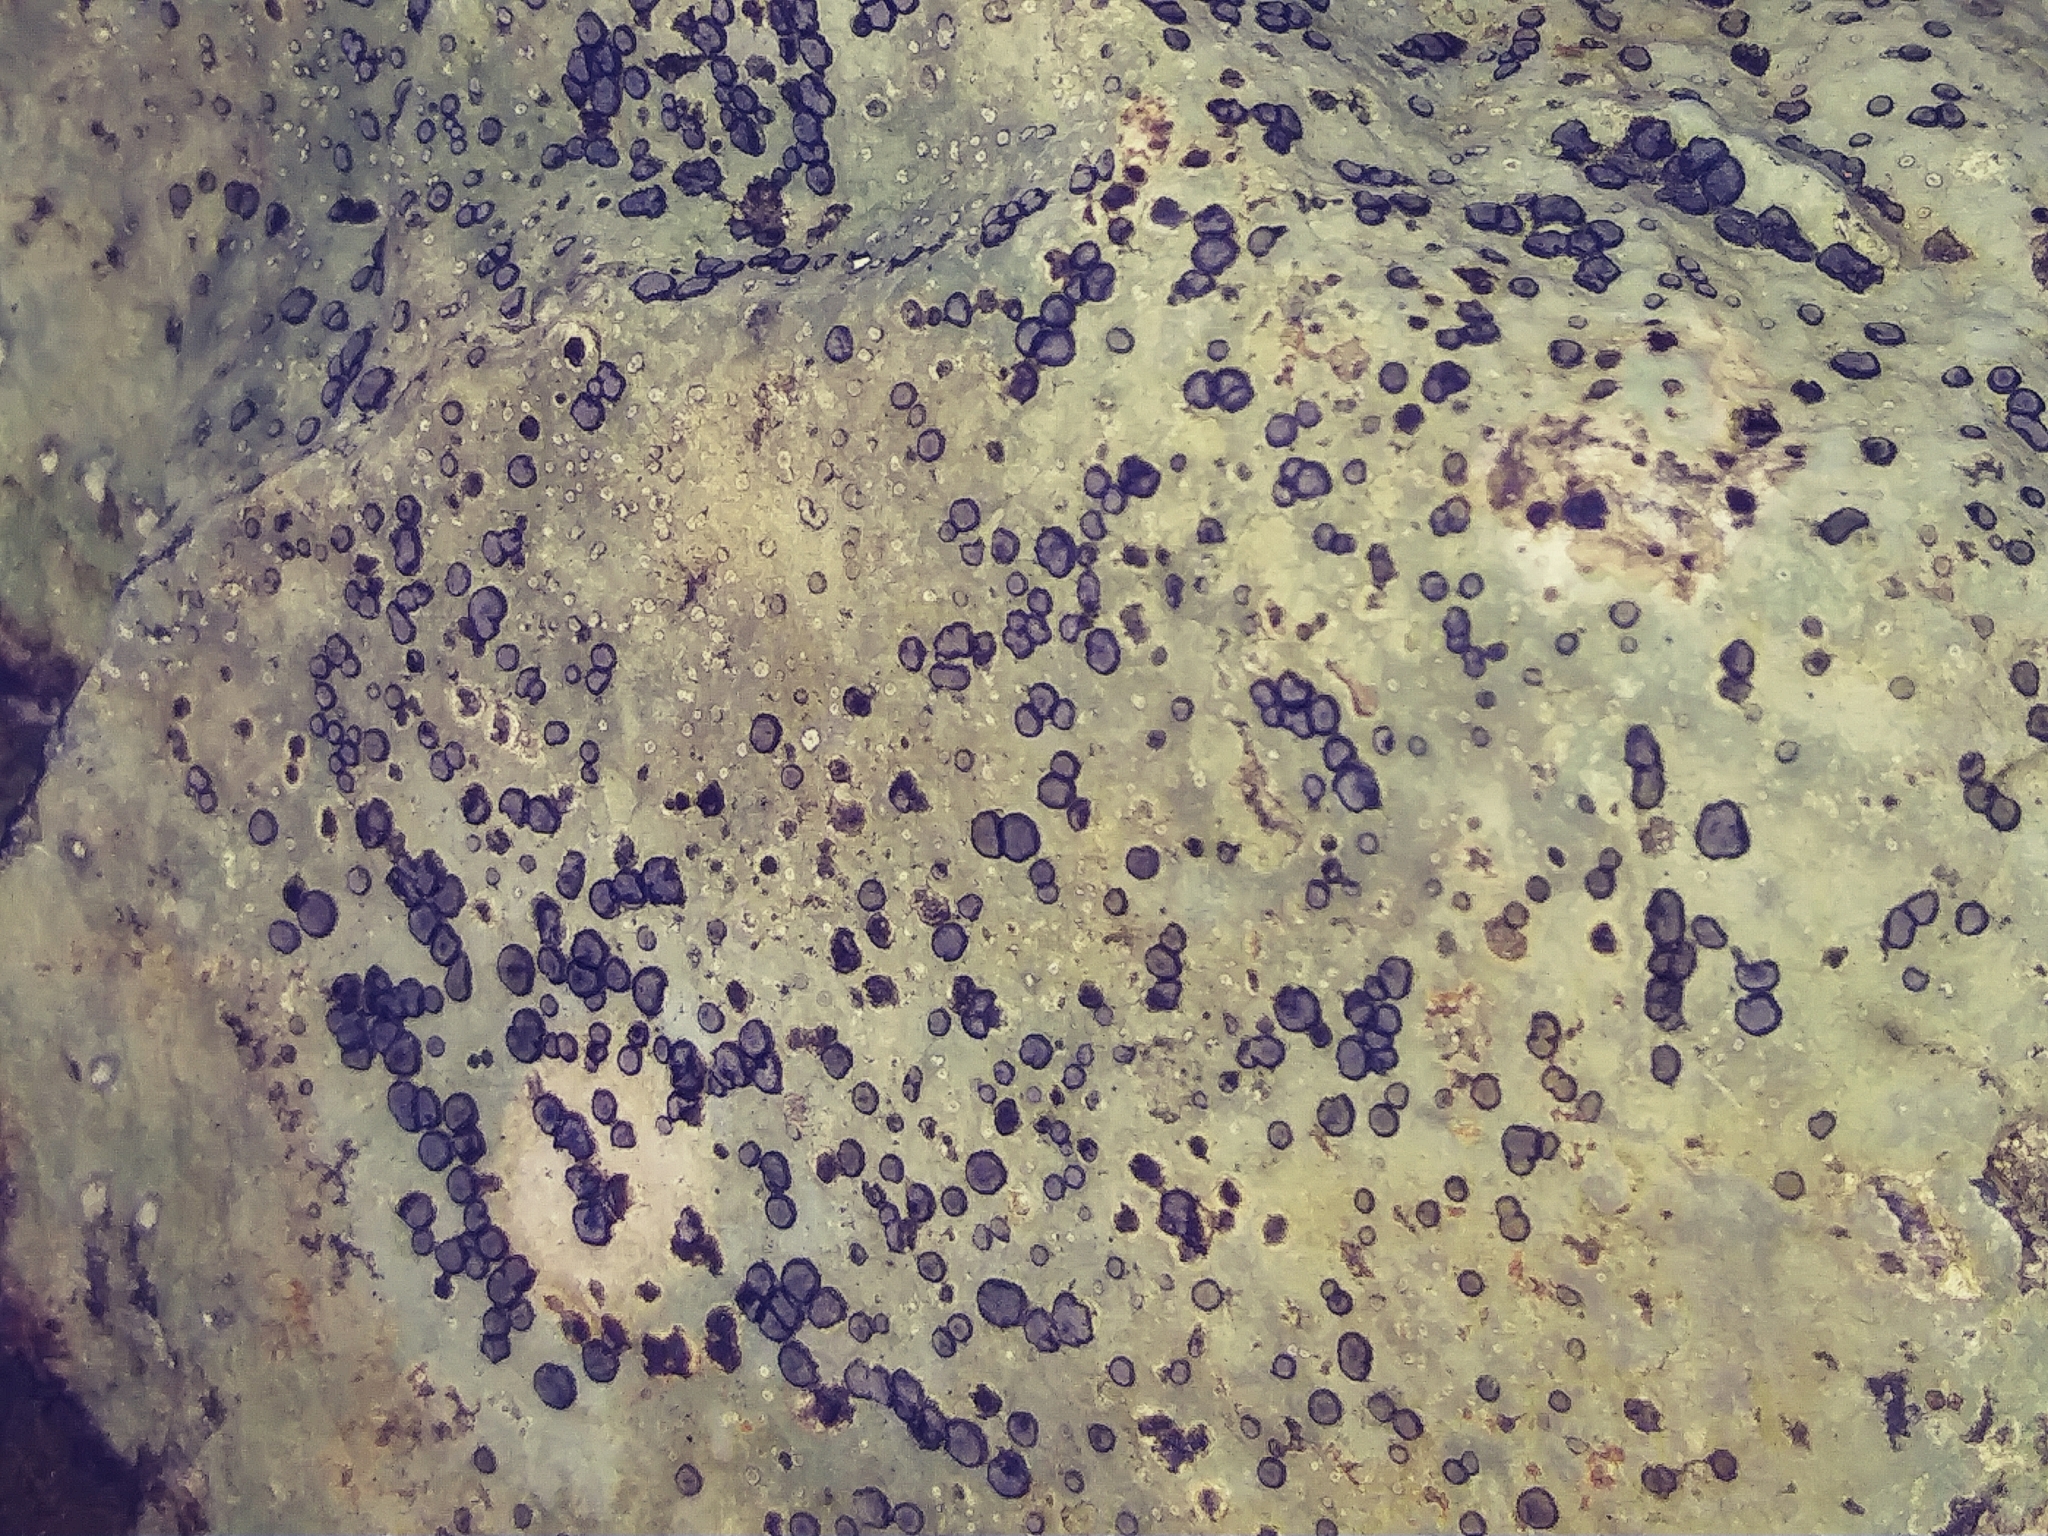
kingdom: Fungi
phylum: Ascomycota
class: Lecanoromycetes
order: Lecideales
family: Lecideaceae
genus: Porpidia
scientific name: Porpidia albocaerulescens
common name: Smokey-eyed boulder lichen
